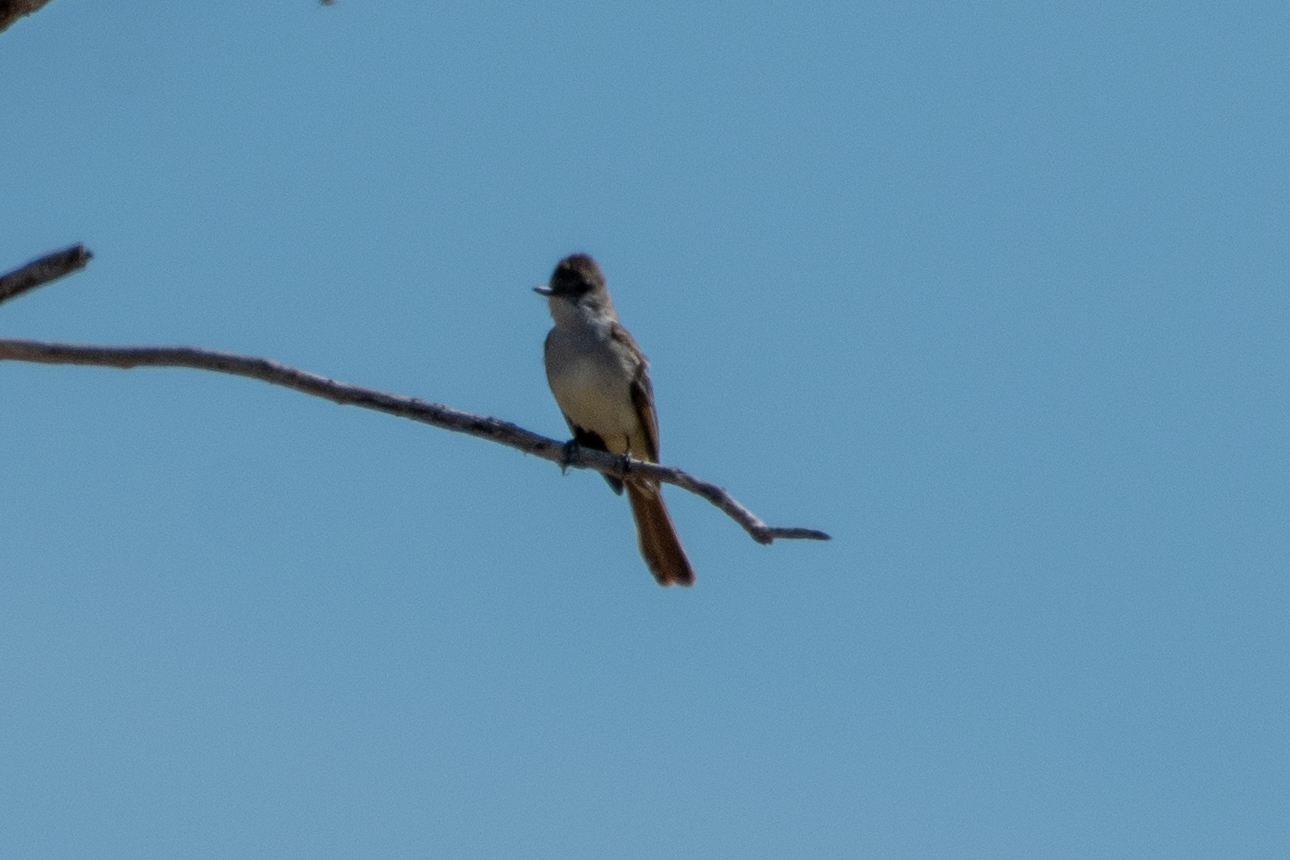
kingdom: Animalia
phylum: Chordata
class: Aves
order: Passeriformes
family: Tyrannidae
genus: Myiarchus
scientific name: Myiarchus cinerascens
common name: Ash-throated flycatcher
